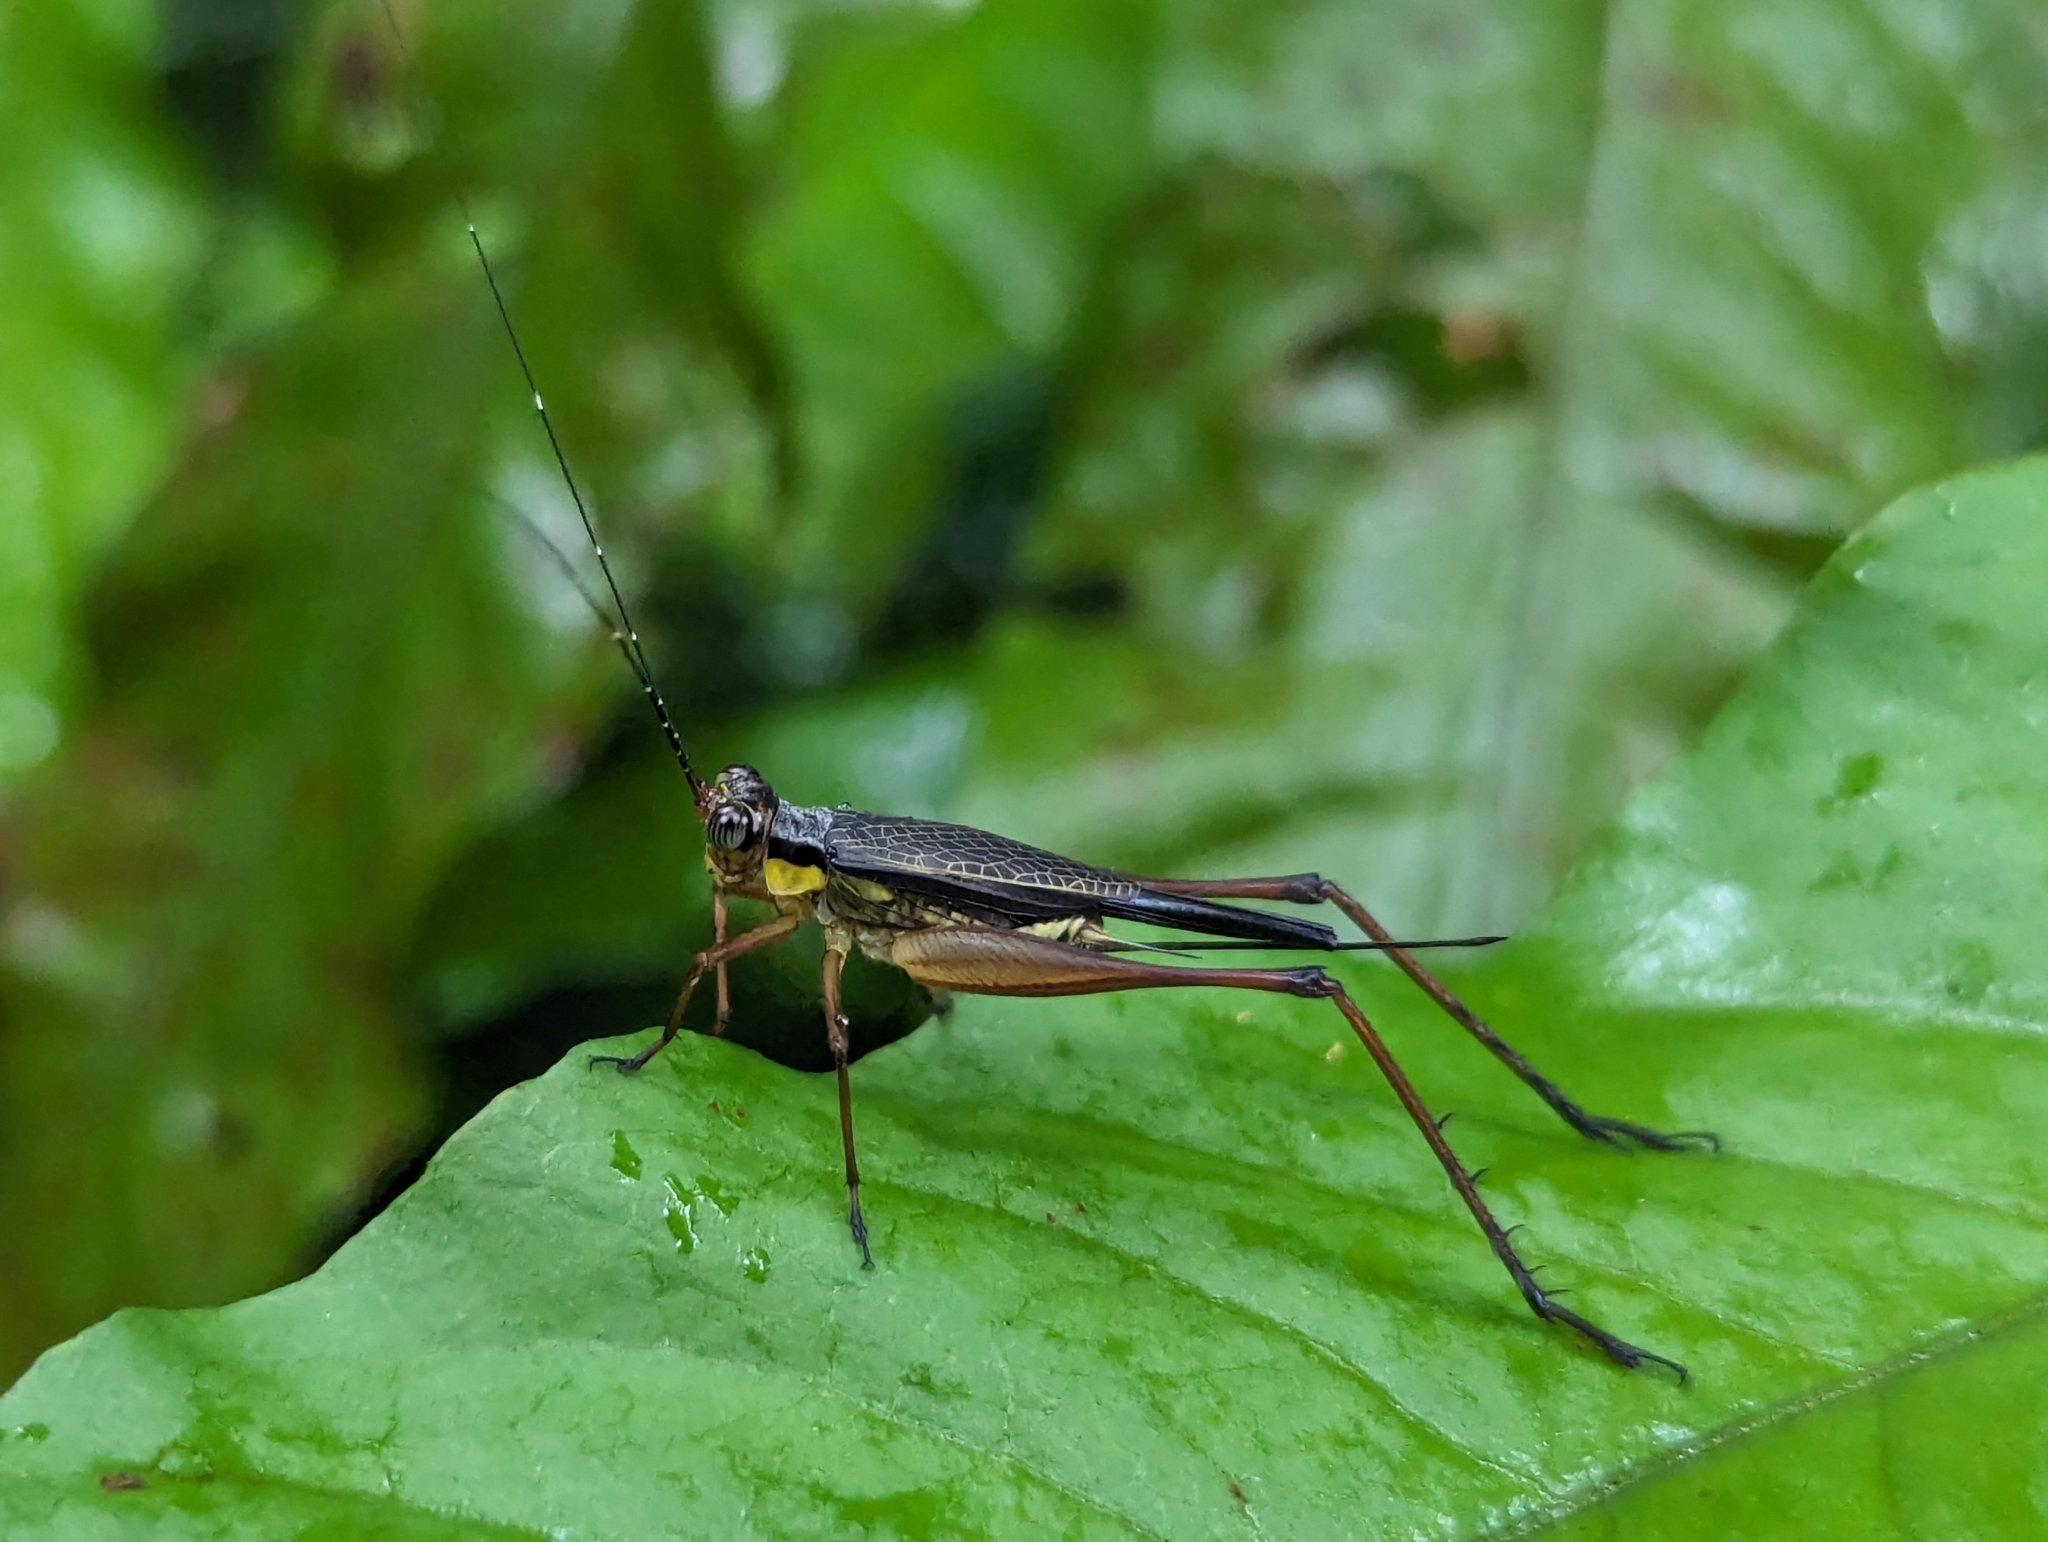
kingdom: Animalia
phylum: Arthropoda
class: Insecta
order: Orthoptera
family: Gryllidae
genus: Nisitrus
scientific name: Nisitrus malaya
